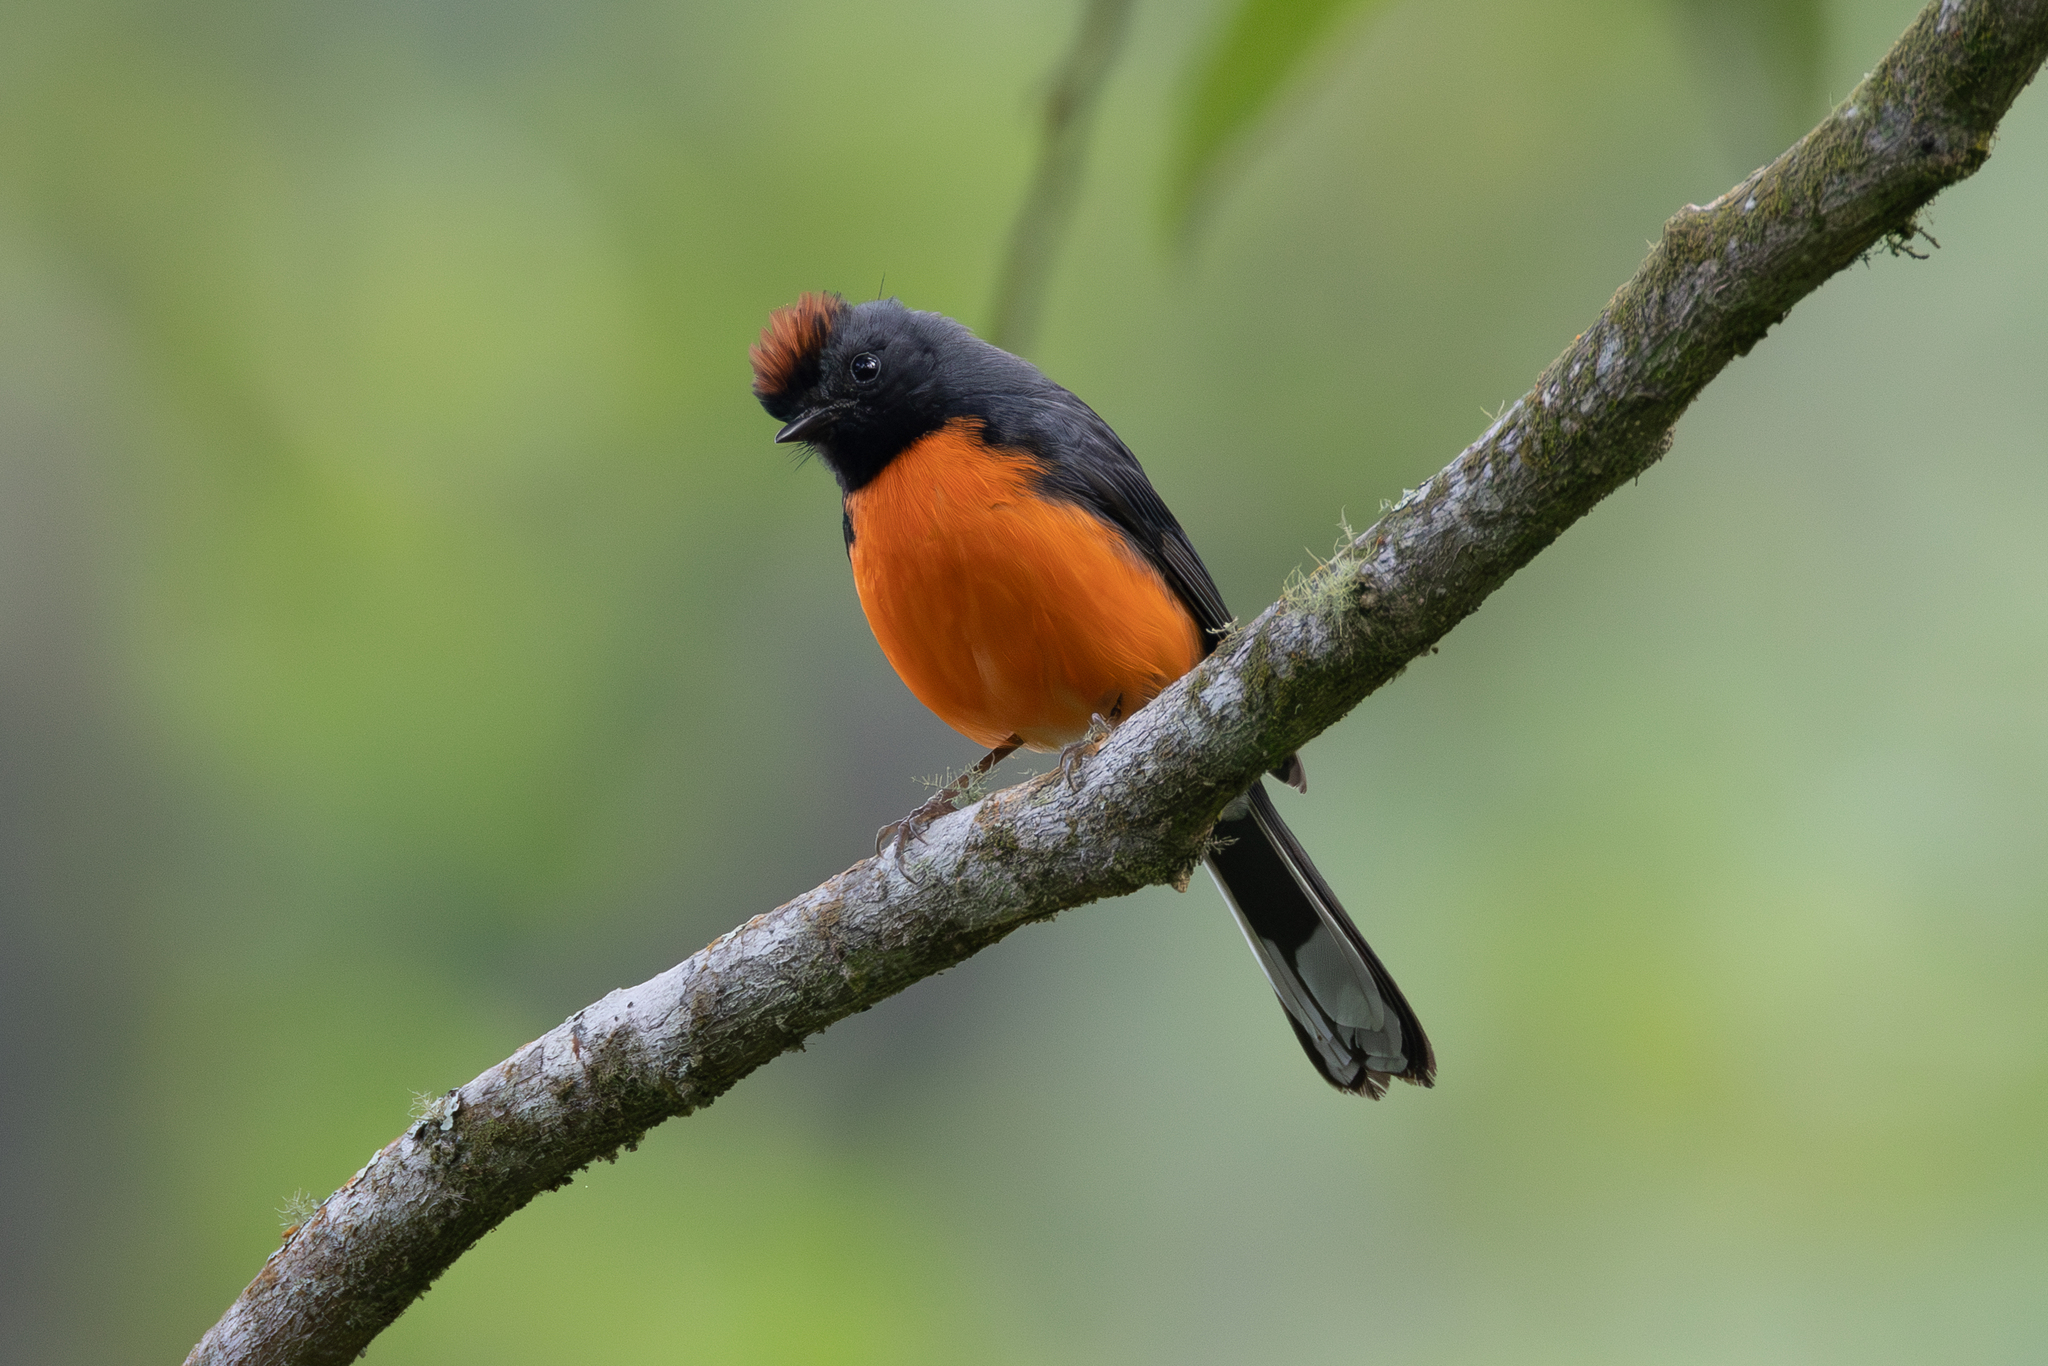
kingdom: Animalia
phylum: Chordata
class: Aves
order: Passeriformes
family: Parulidae
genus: Myioborus
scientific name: Myioborus miniatus
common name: Slate-throated redstart
